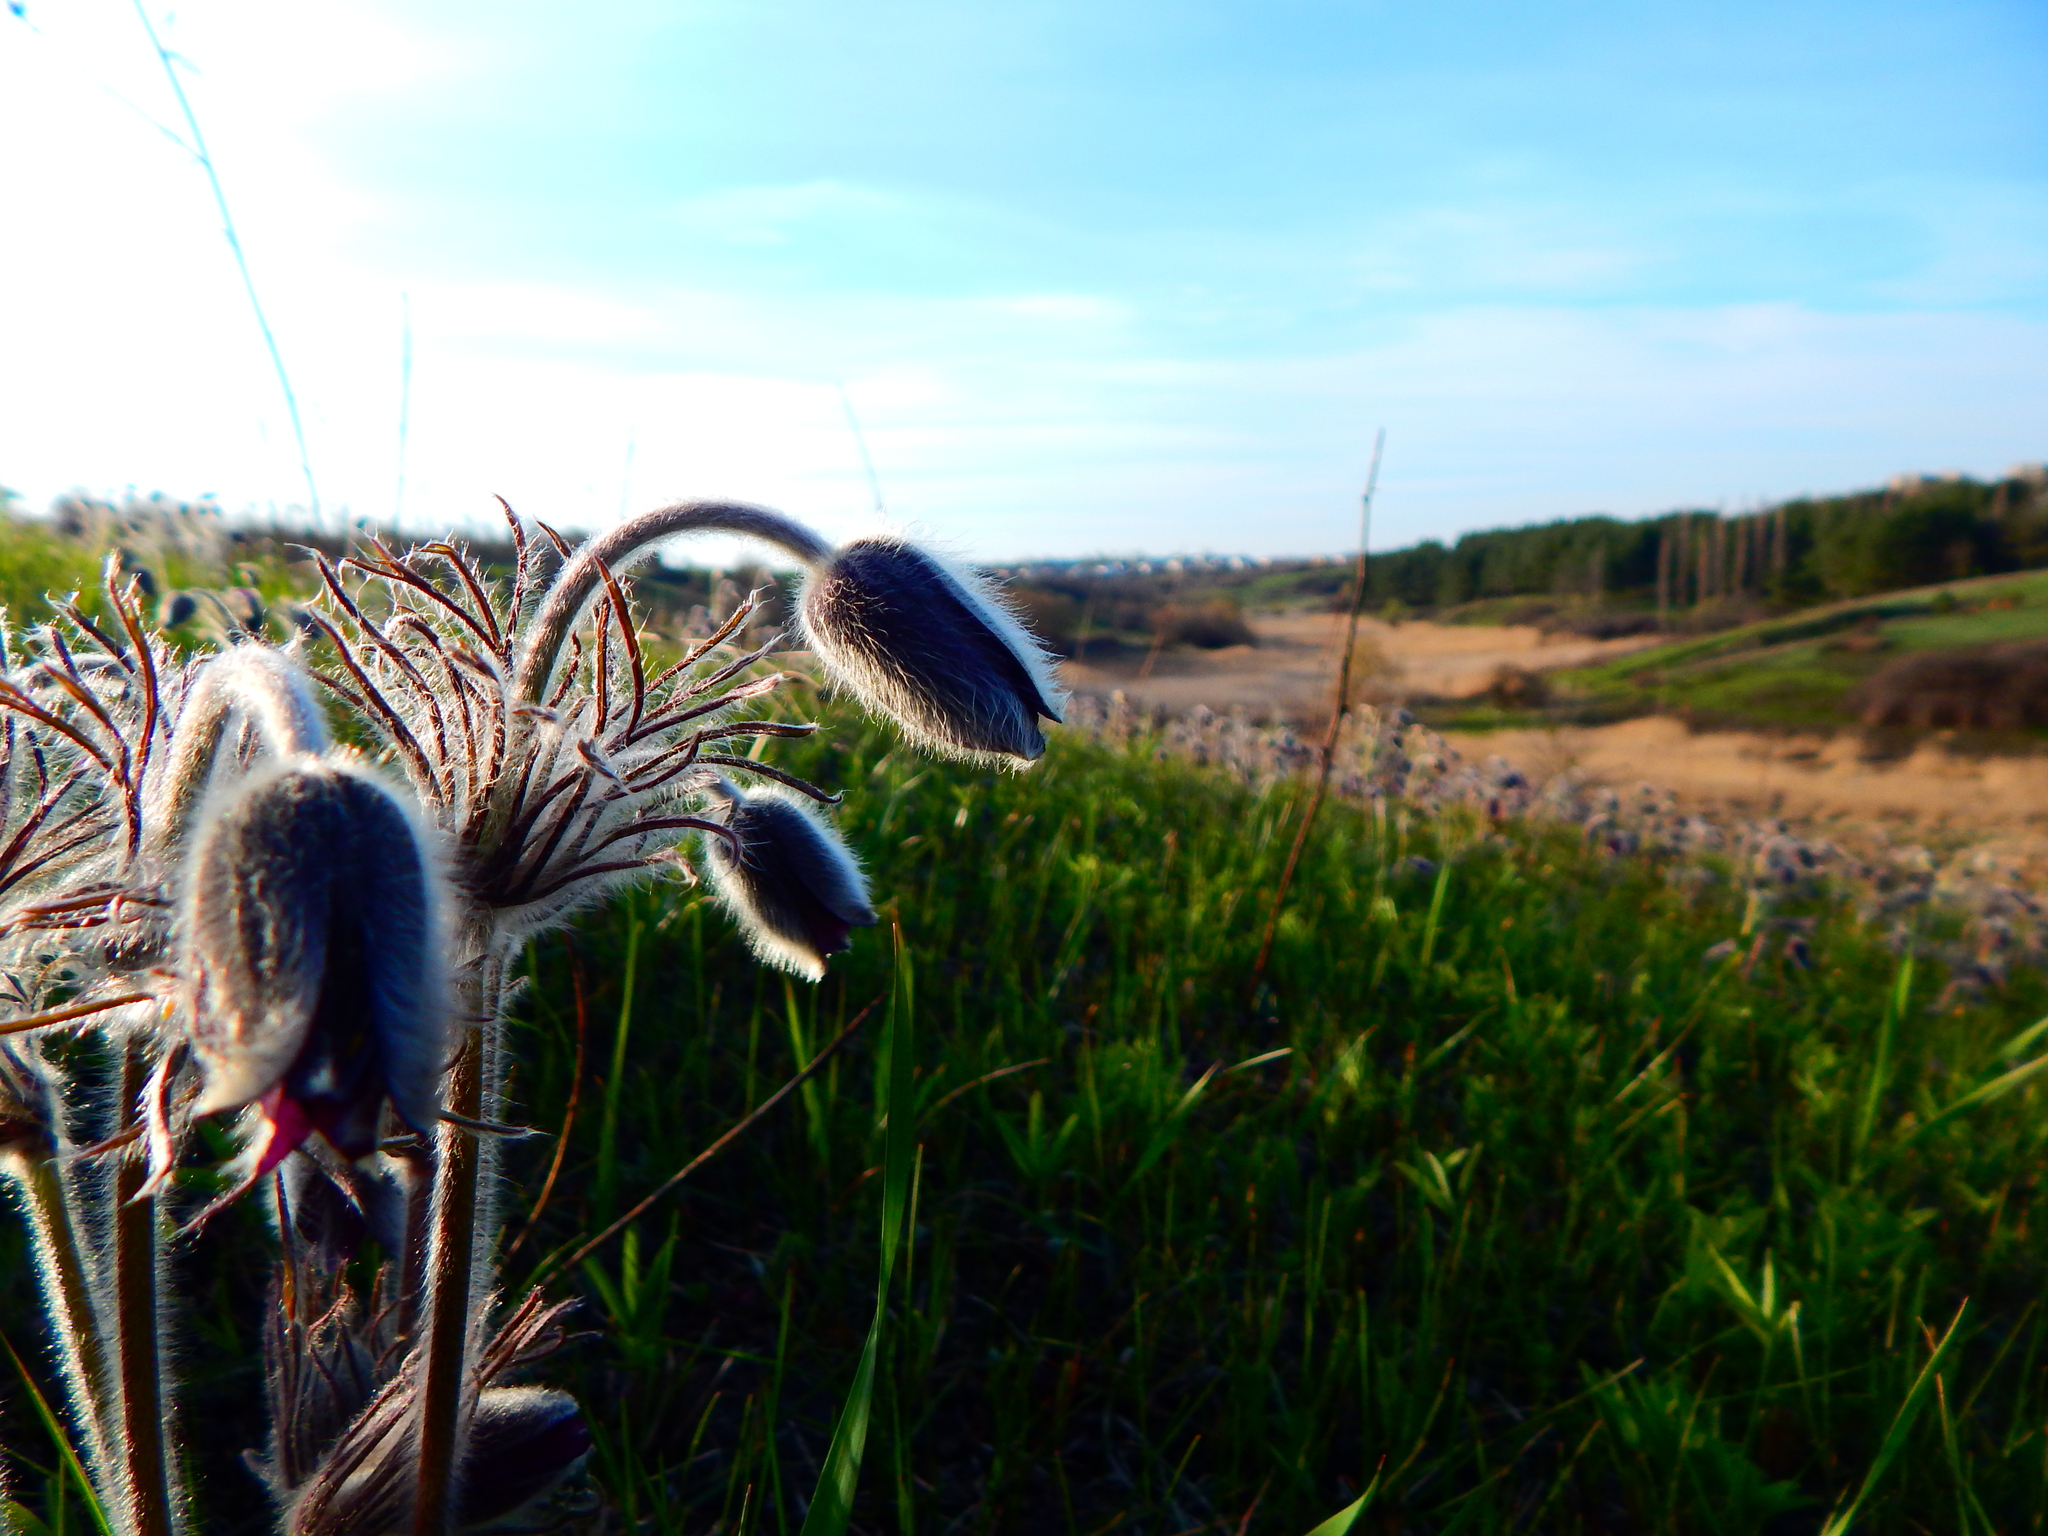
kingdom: Plantae
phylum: Tracheophyta
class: Magnoliopsida
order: Ranunculales
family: Ranunculaceae
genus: Pulsatilla
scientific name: Pulsatilla pratensis
